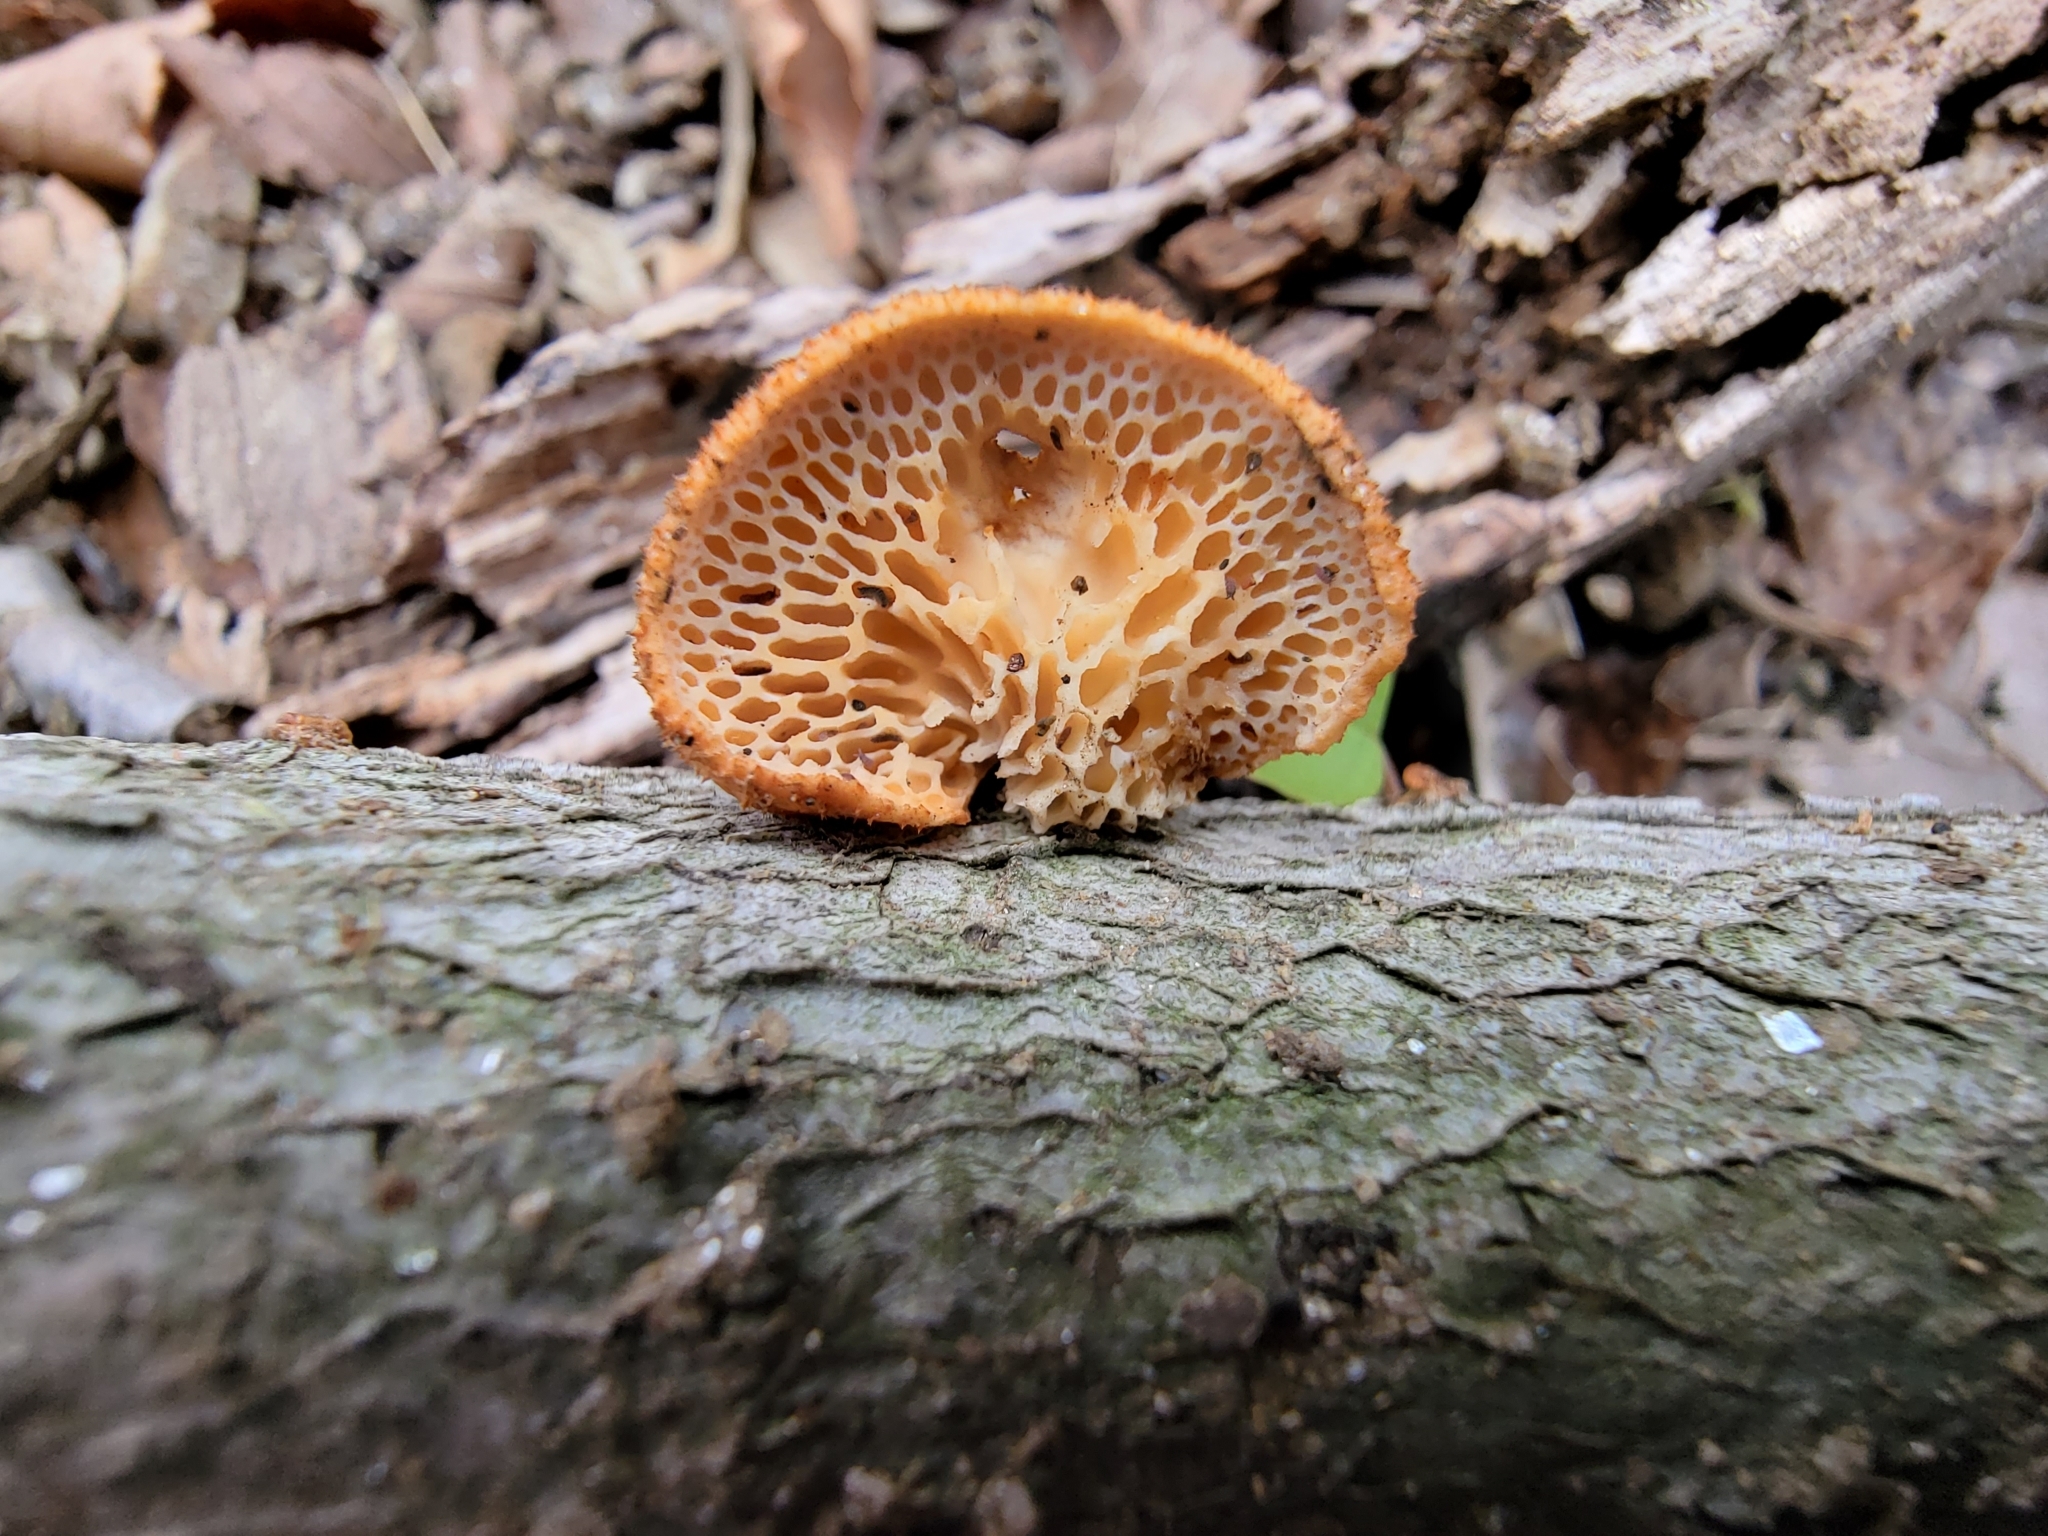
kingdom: Fungi
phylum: Basidiomycota
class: Agaricomycetes
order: Polyporales
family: Polyporaceae
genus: Neofavolus
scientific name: Neofavolus alveolaris
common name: Hexagonal-pored polypore
